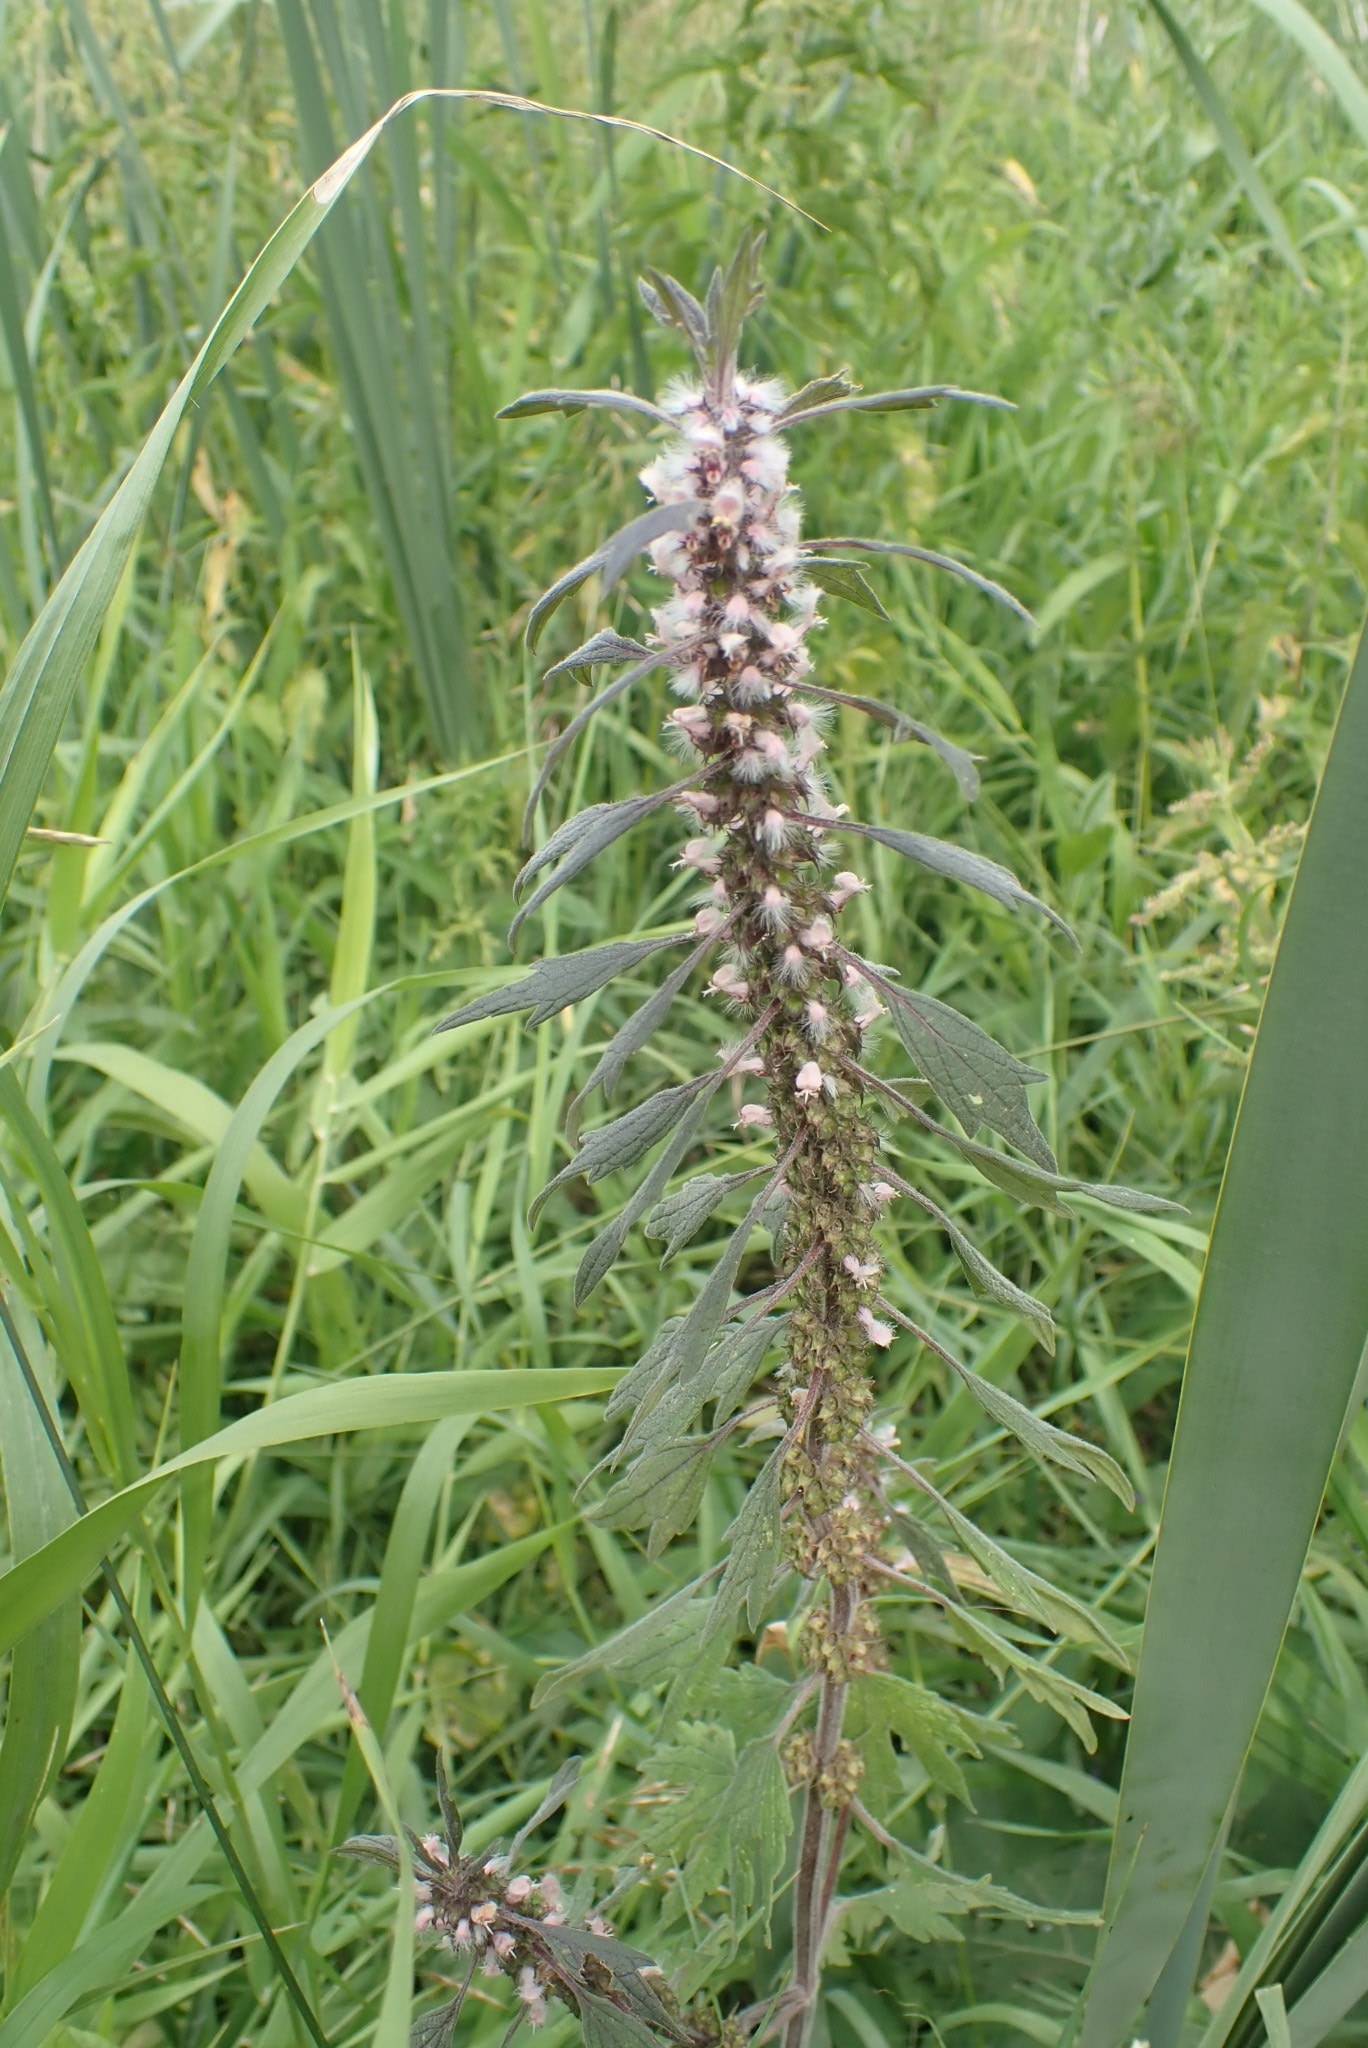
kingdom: Plantae
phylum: Tracheophyta
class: Magnoliopsida
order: Lamiales
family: Lamiaceae
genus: Leonurus
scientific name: Leonurus quinquelobatus
